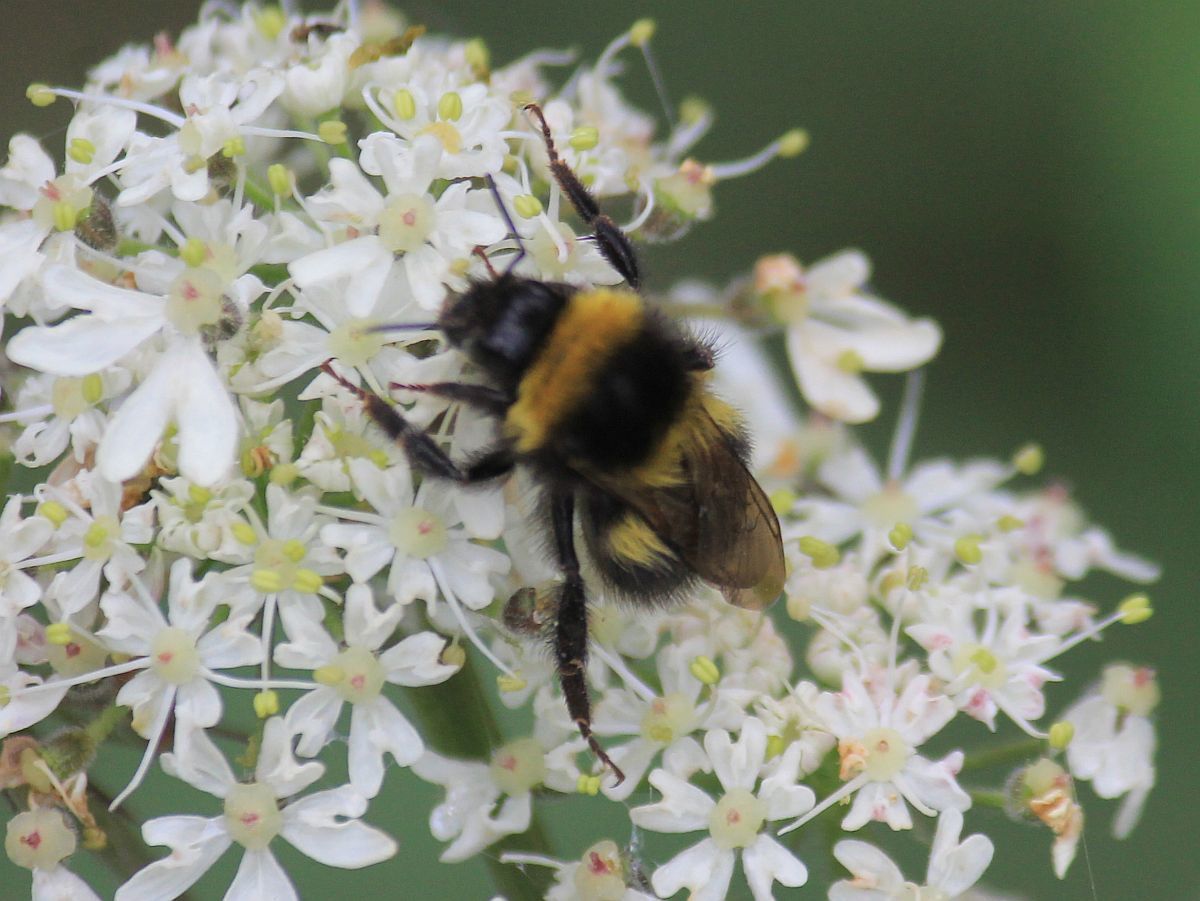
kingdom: Animalia
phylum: Arthropoda
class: Insecta
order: Hymenoptera
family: Apidae
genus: Bombus
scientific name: Bombus hortorum
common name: Garden bumblebee
